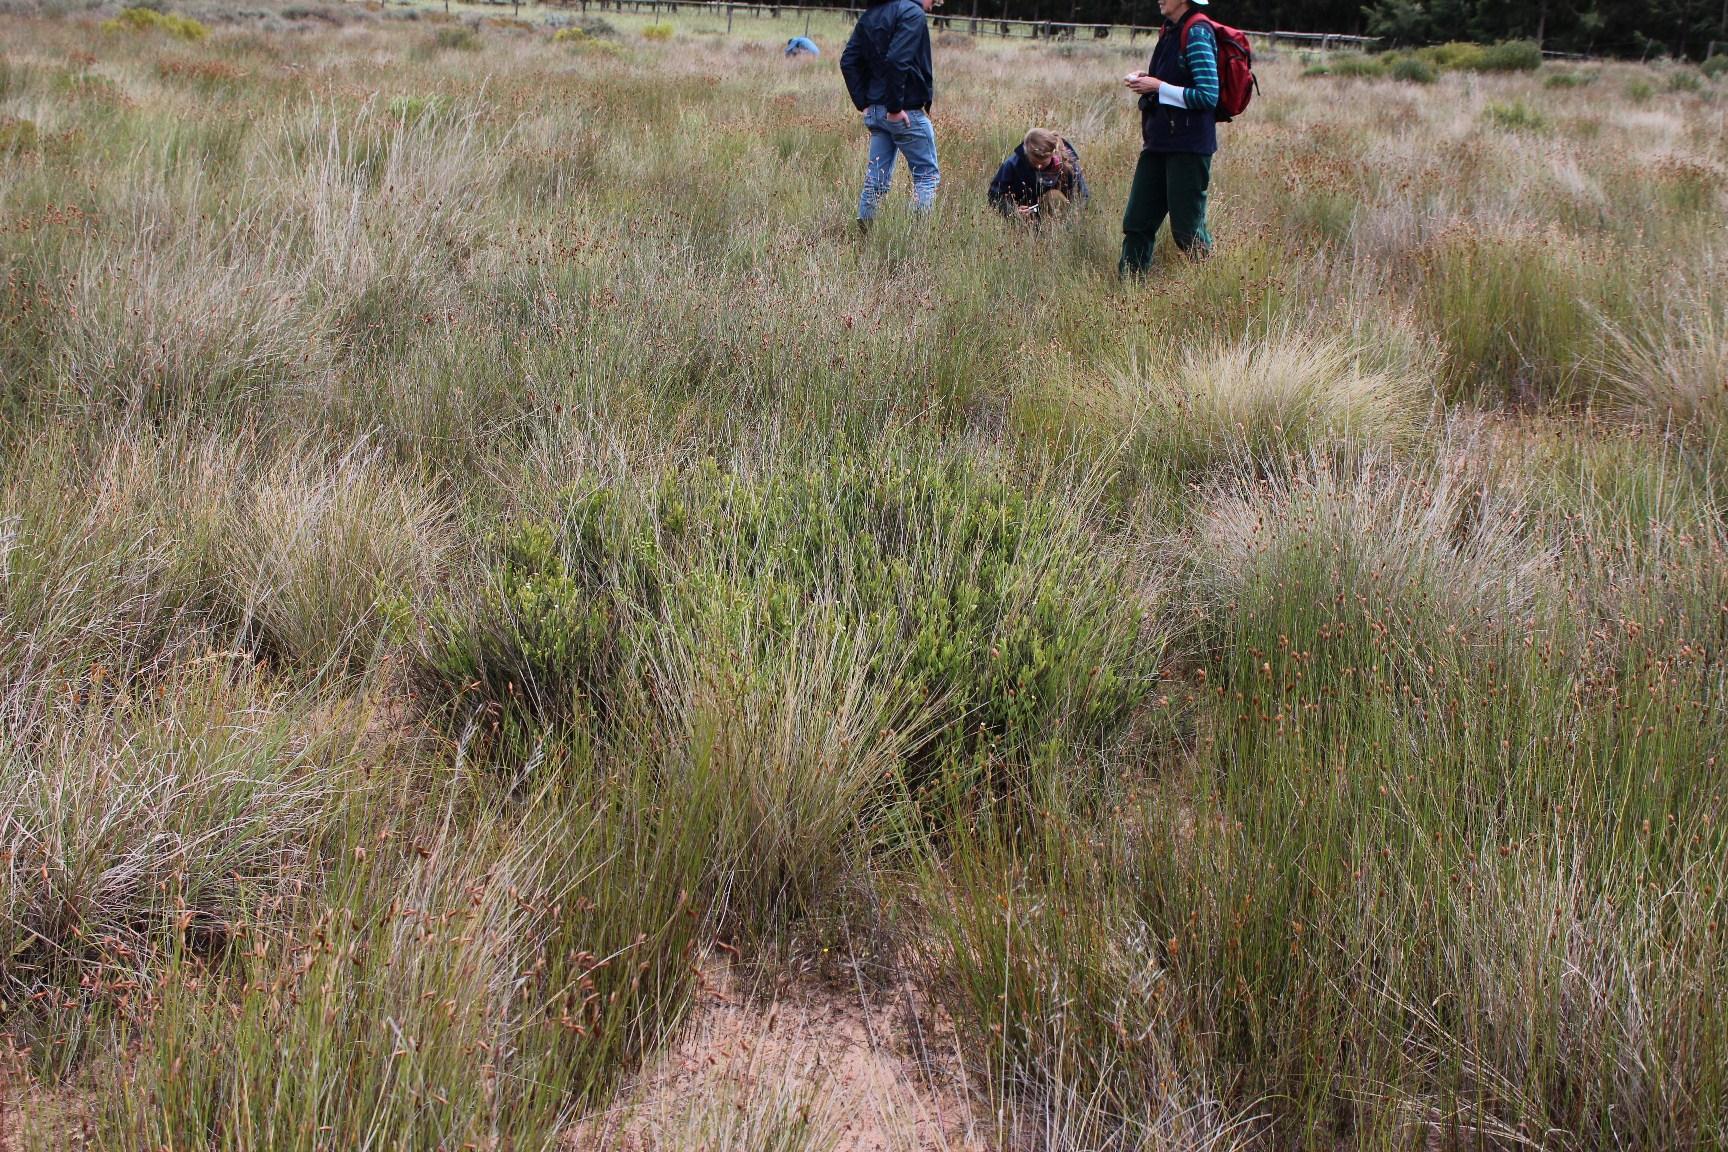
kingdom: Plantae
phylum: Tracheophyta
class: Magnoliopsida
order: Solanales
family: Montiniaceae
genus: Montinia
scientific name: Montinia caryophyllacea
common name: Wild clove-bush
